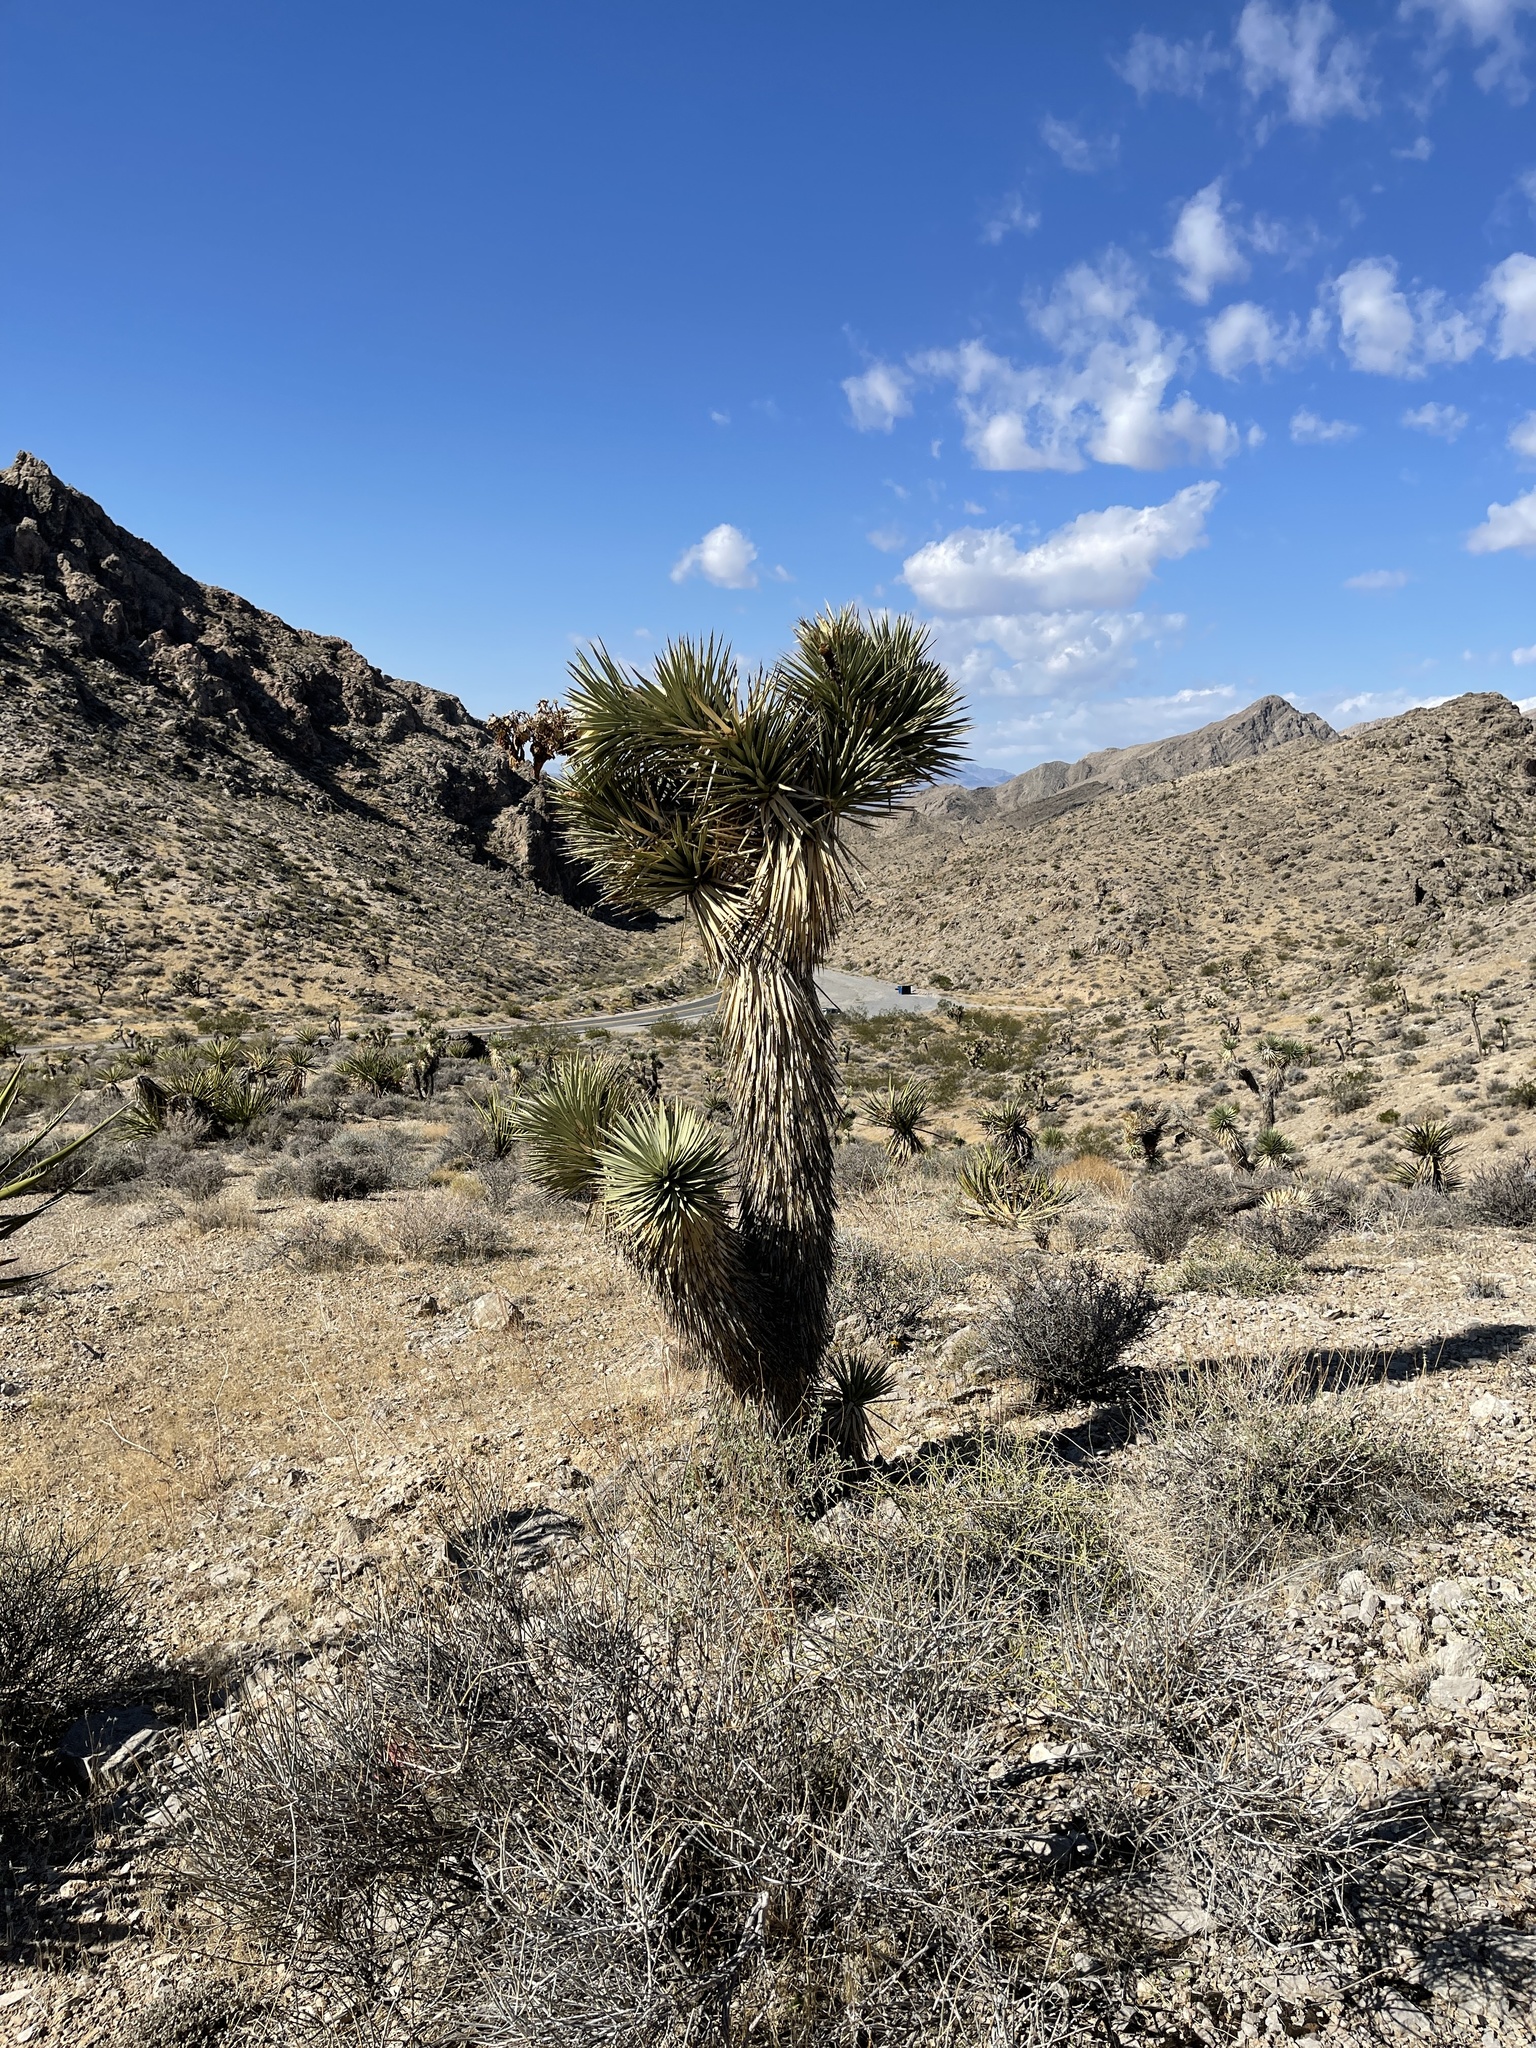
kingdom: Plantae
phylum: Tracheophyta
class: Liliopsida
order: Asparagales
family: Asparagaceae
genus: Yucca
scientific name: Yucca brevifolia
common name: Joshua tree
